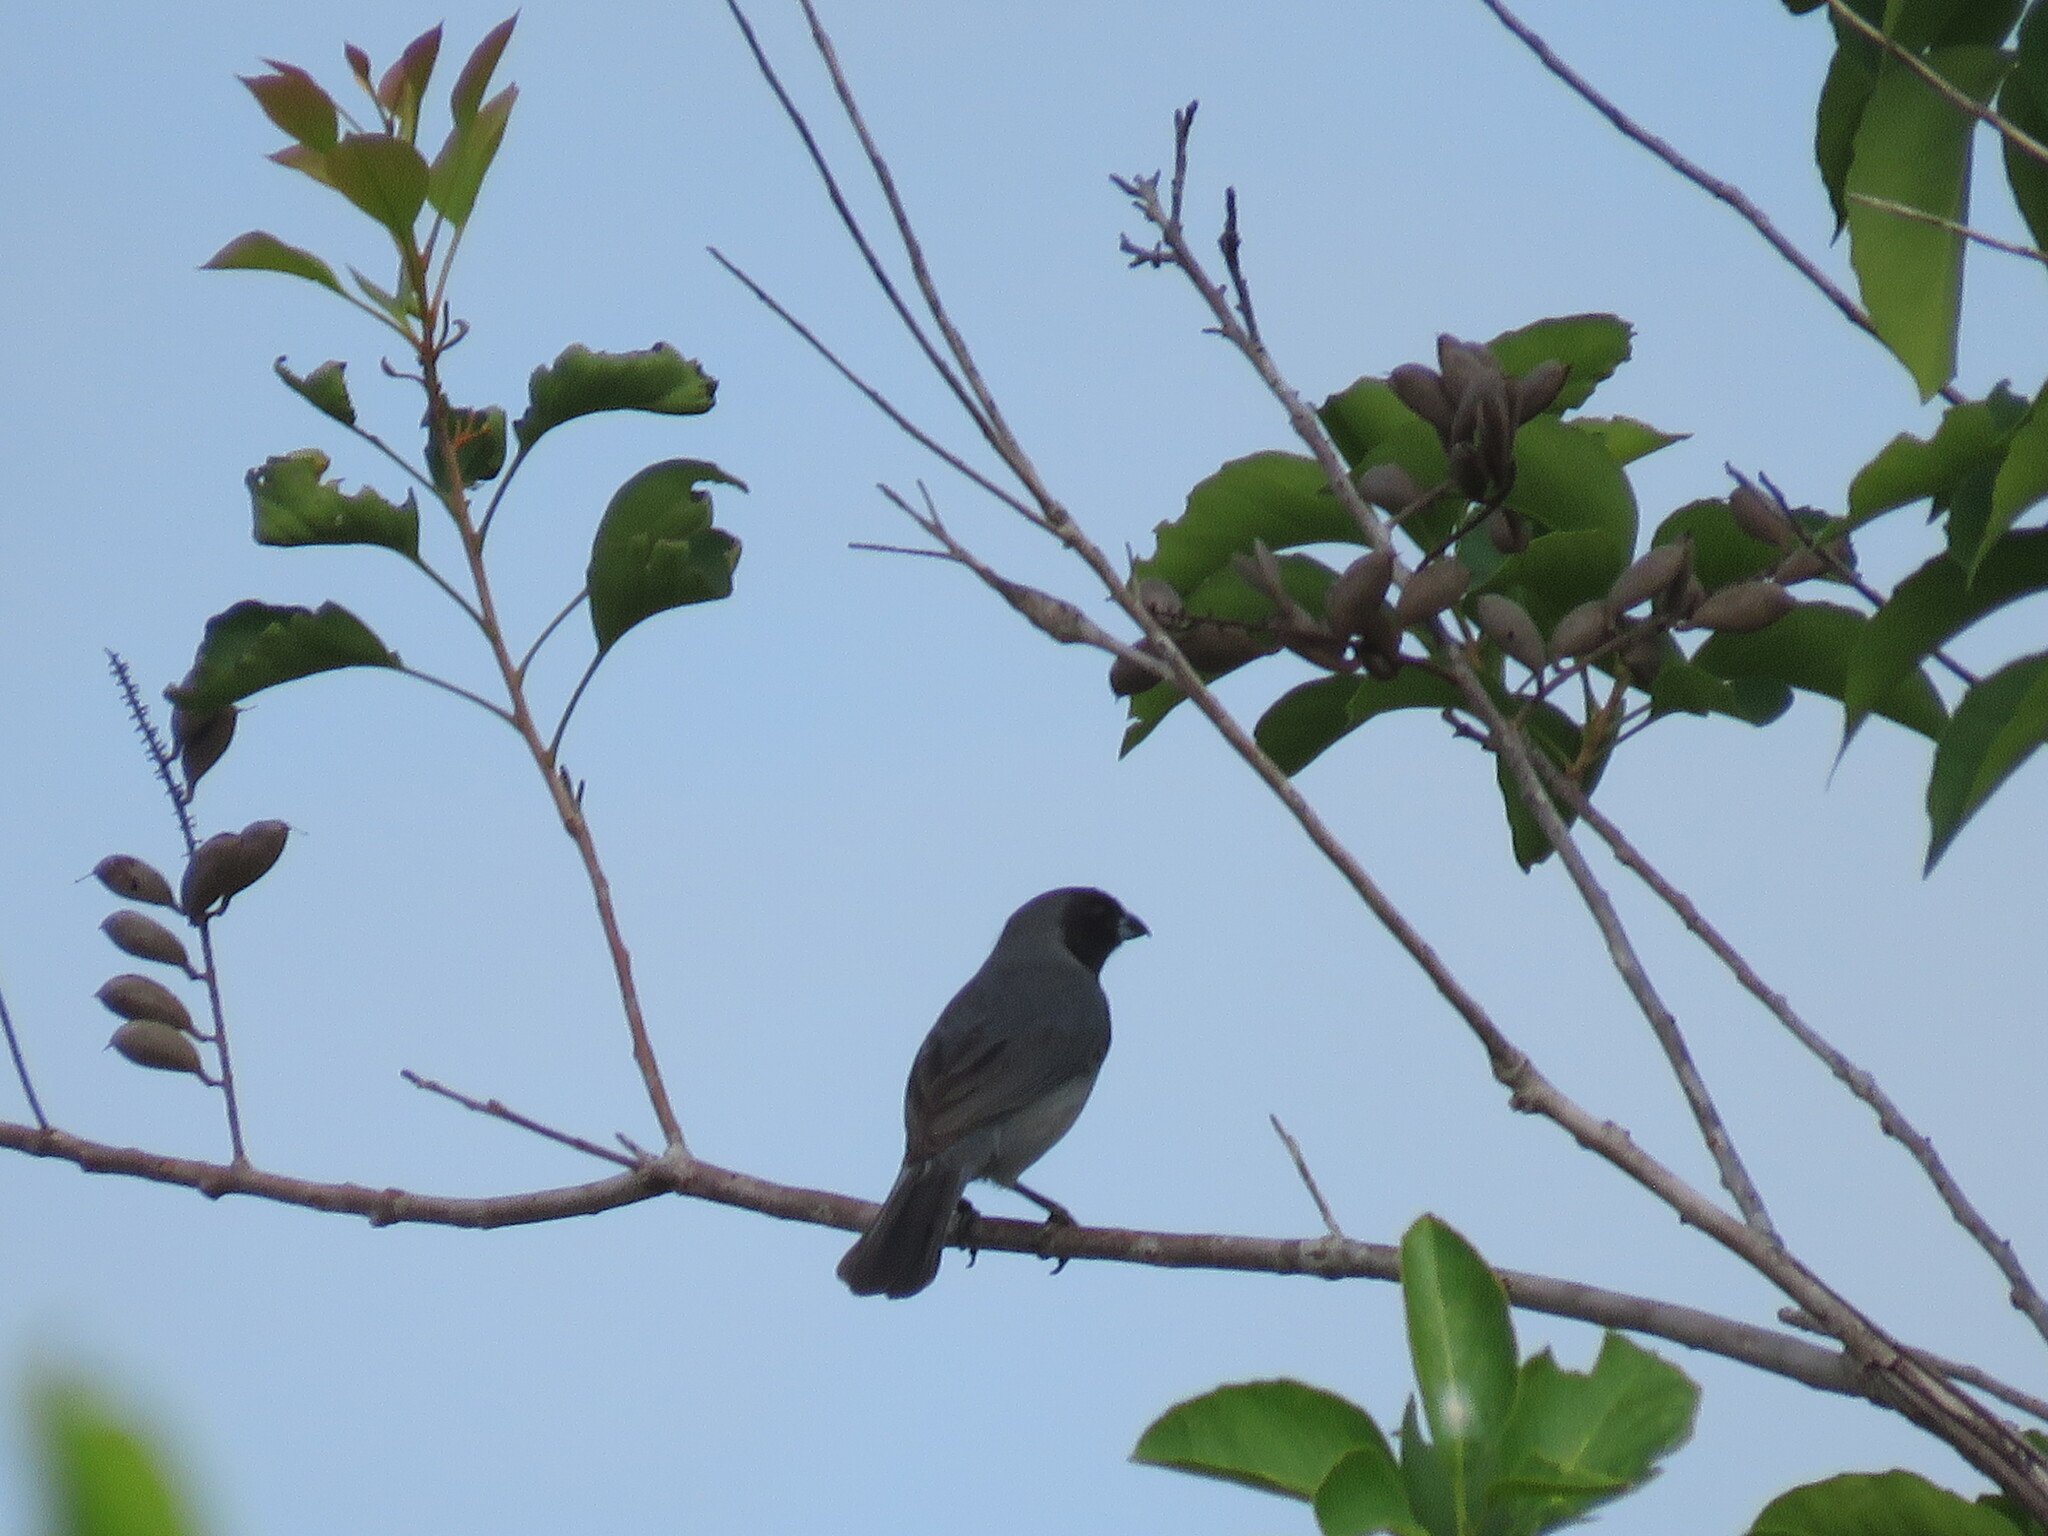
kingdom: Animalia
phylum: Chordata
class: Aves
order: Passeriformes
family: Thraupidae
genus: Schistochlamys
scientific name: Schistochlamys melanopis
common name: Black-faced tanager
